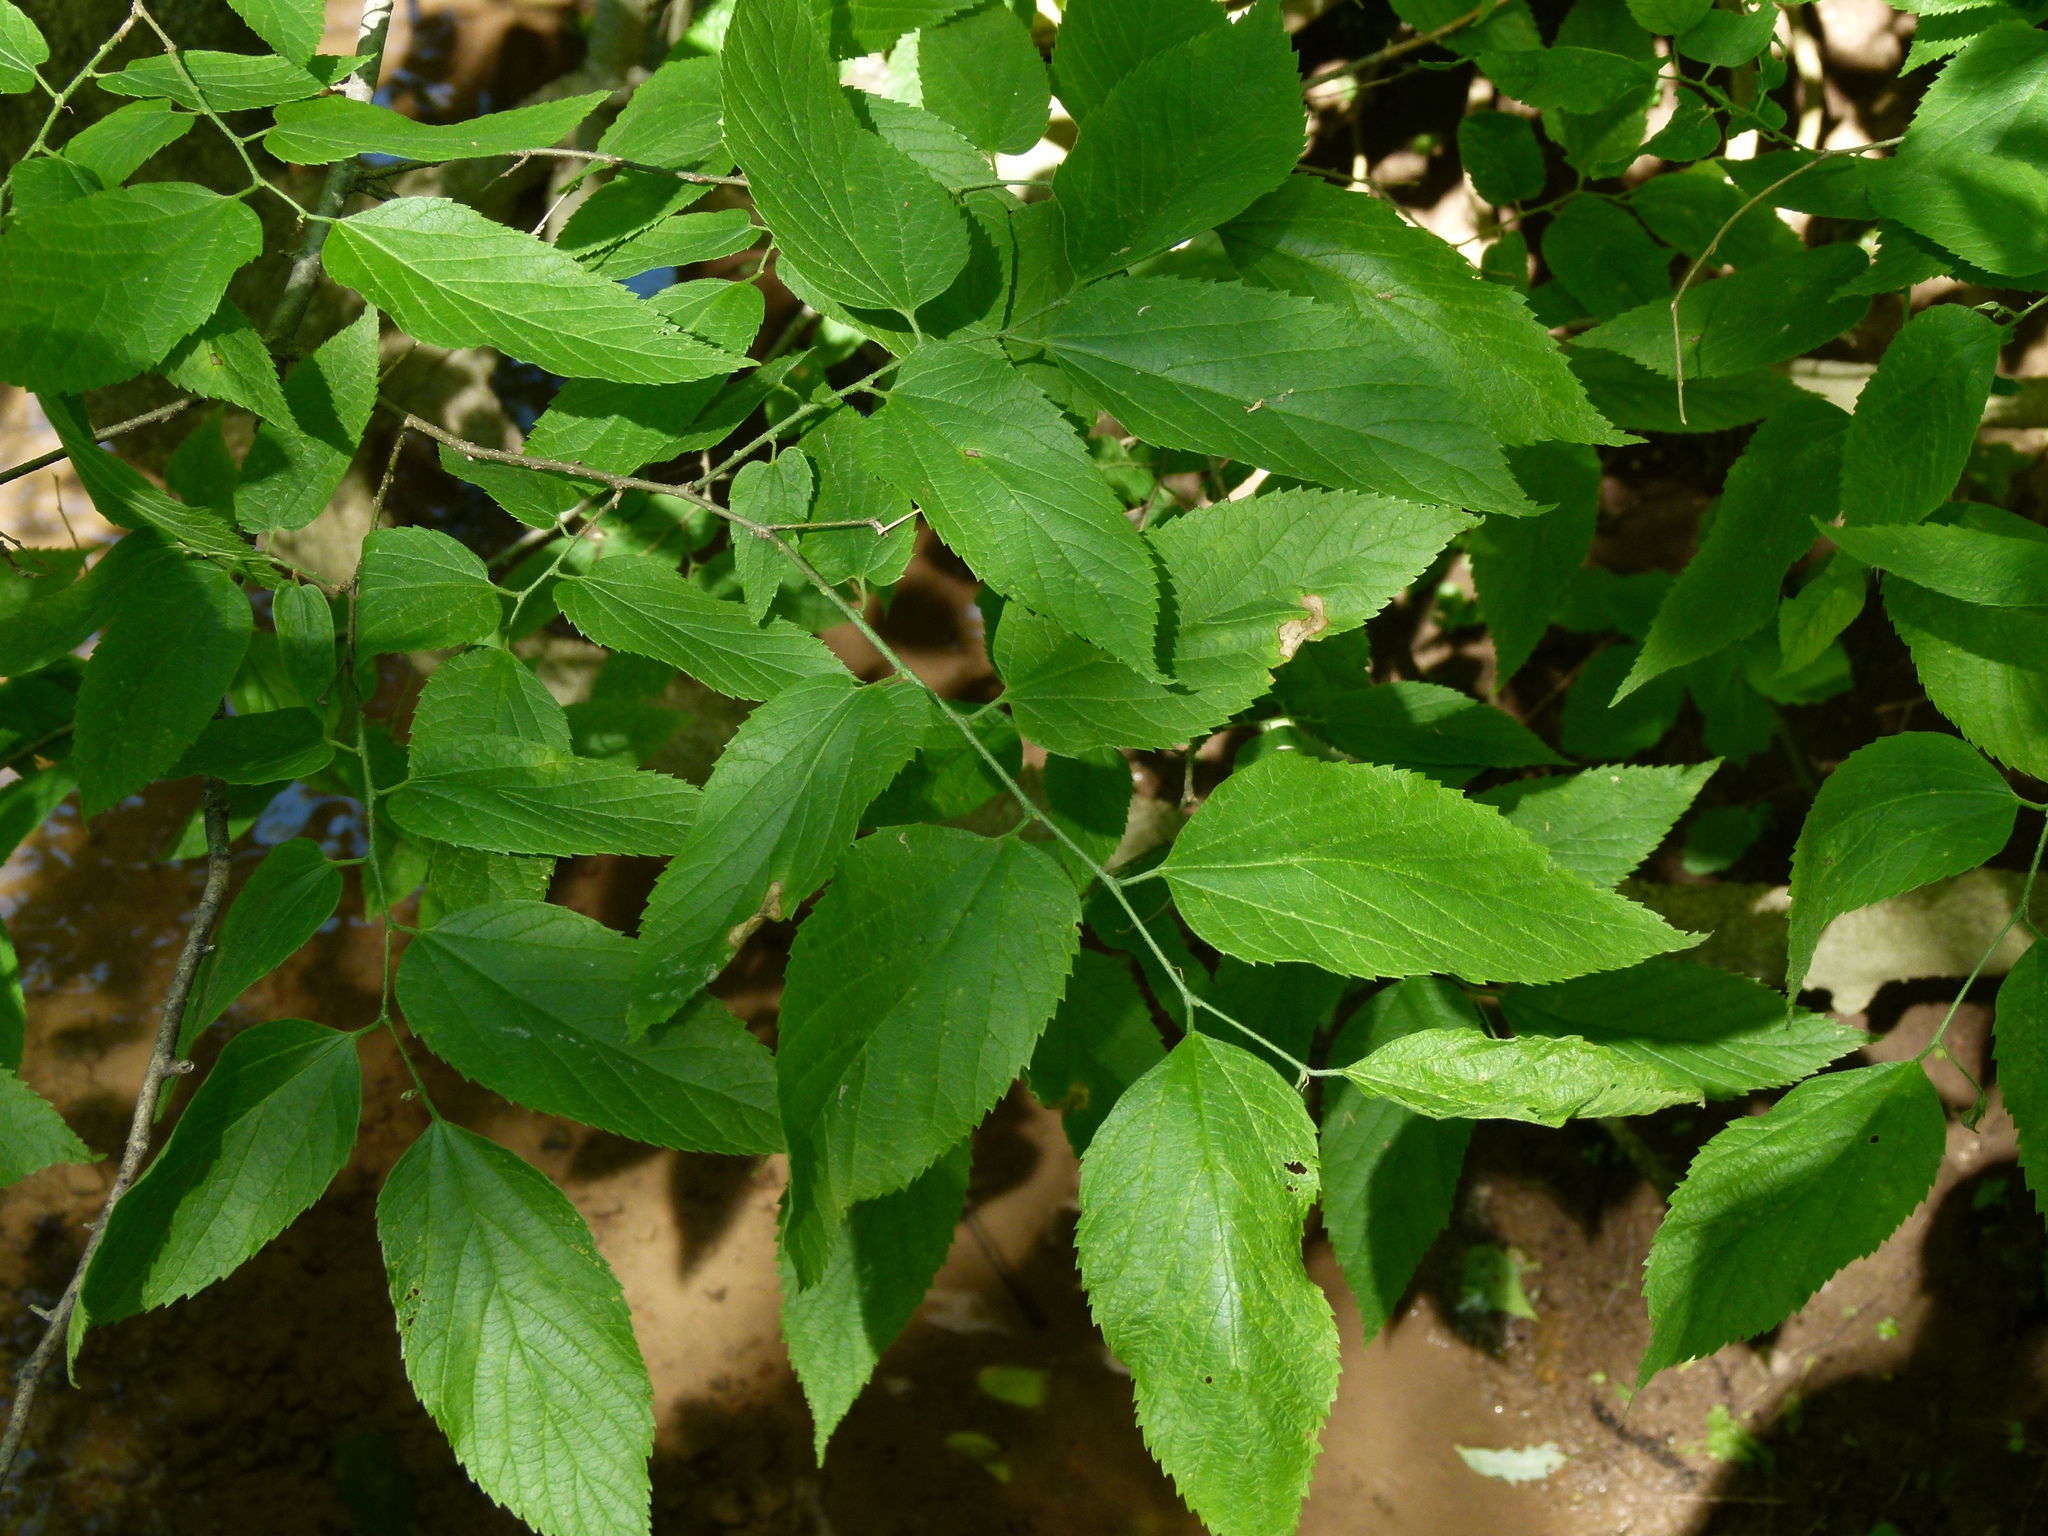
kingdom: Plantae
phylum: Tracheophyta
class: Magnoliopsida
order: Rosales
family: Cannabaceae
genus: Celtis
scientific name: Celtis occidentalis
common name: Common hackberry
